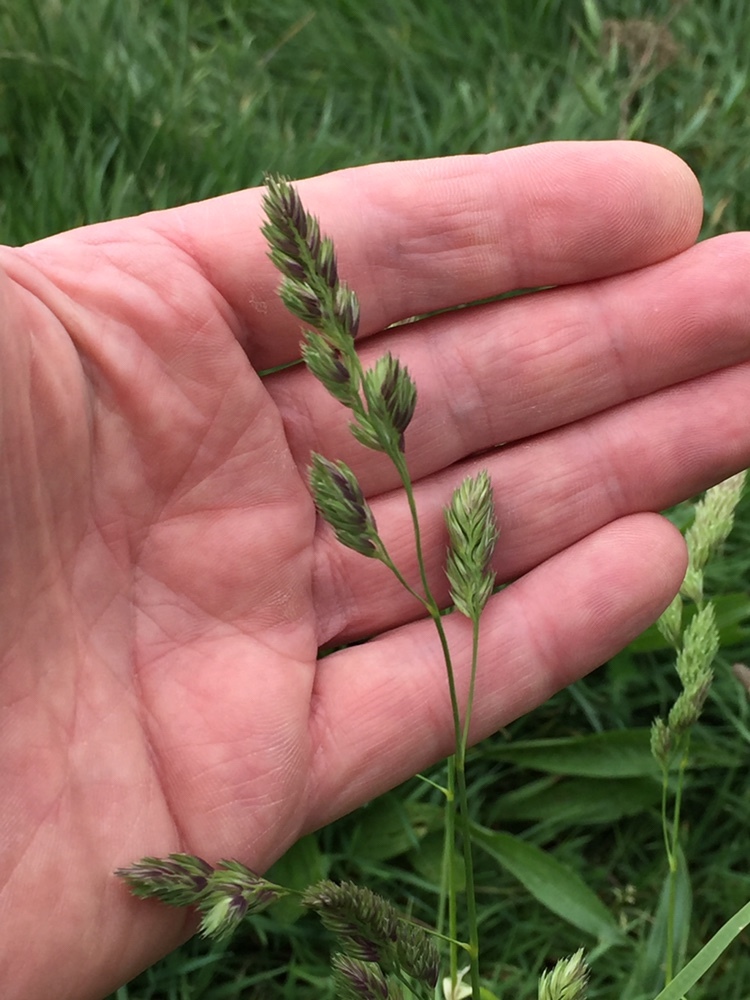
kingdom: Plantae
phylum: Tracheophyta
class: Liliopsida
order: Poales
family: Poaceae
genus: Dactylis
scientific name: Dactylis glomerata
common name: Orchardgrass
